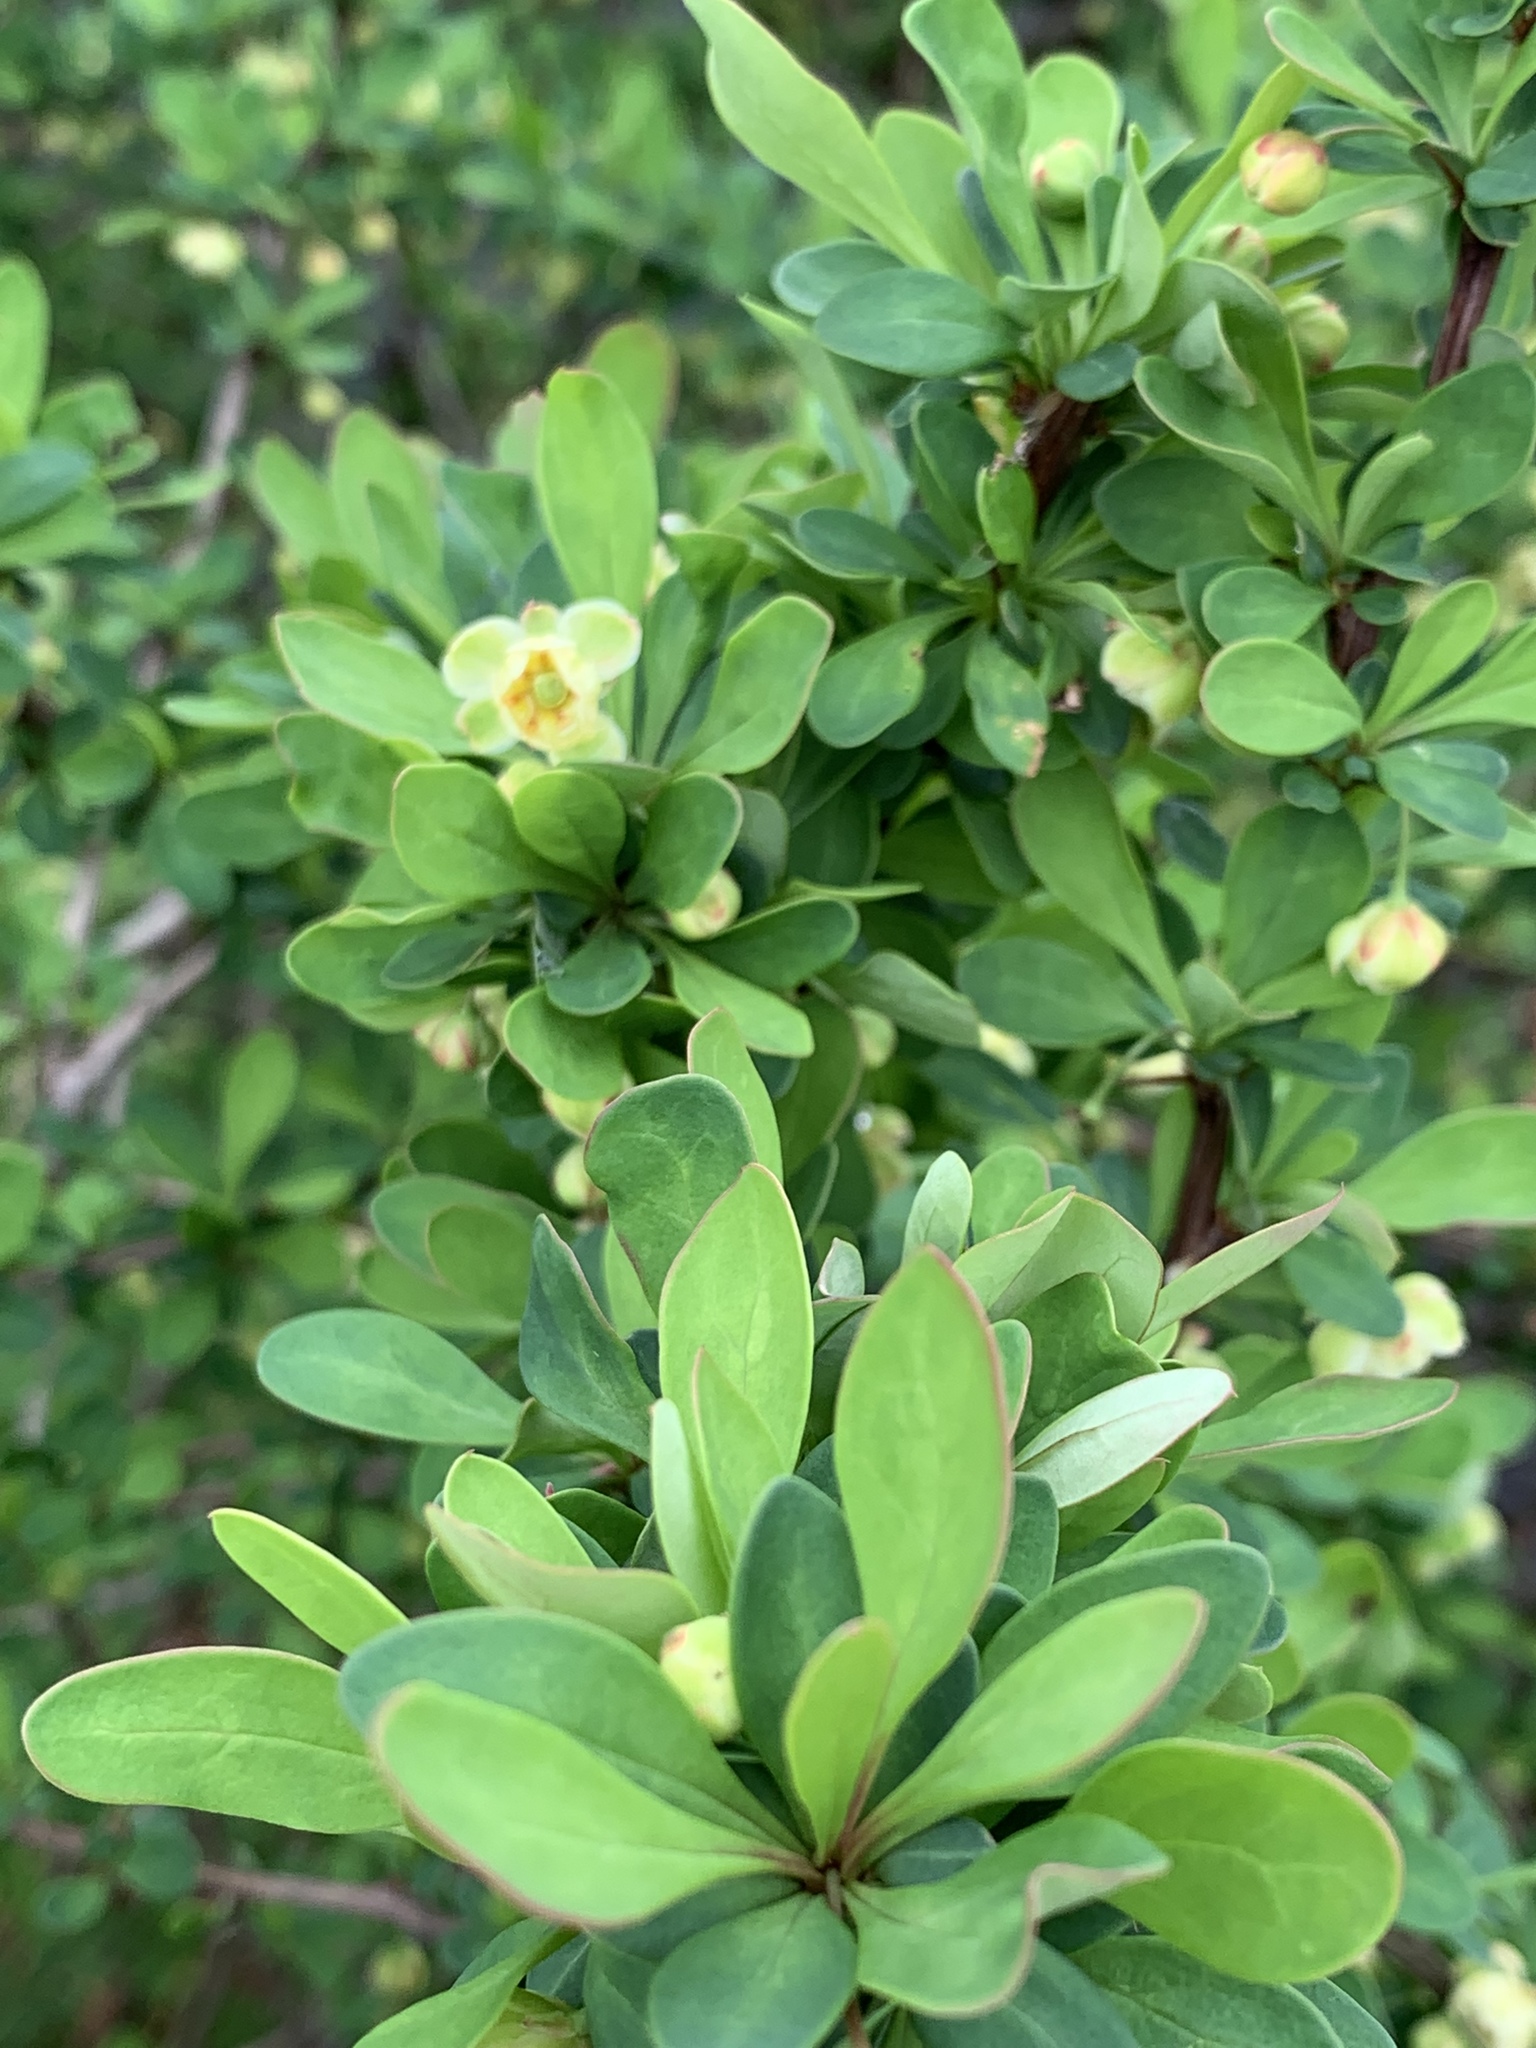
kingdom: Plantae
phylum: Tracheophyta
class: Magnoliopsida
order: Ranunculales
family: Berberidaceae
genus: Berberis
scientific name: Berberis thunbergii
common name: Japanese barberry
